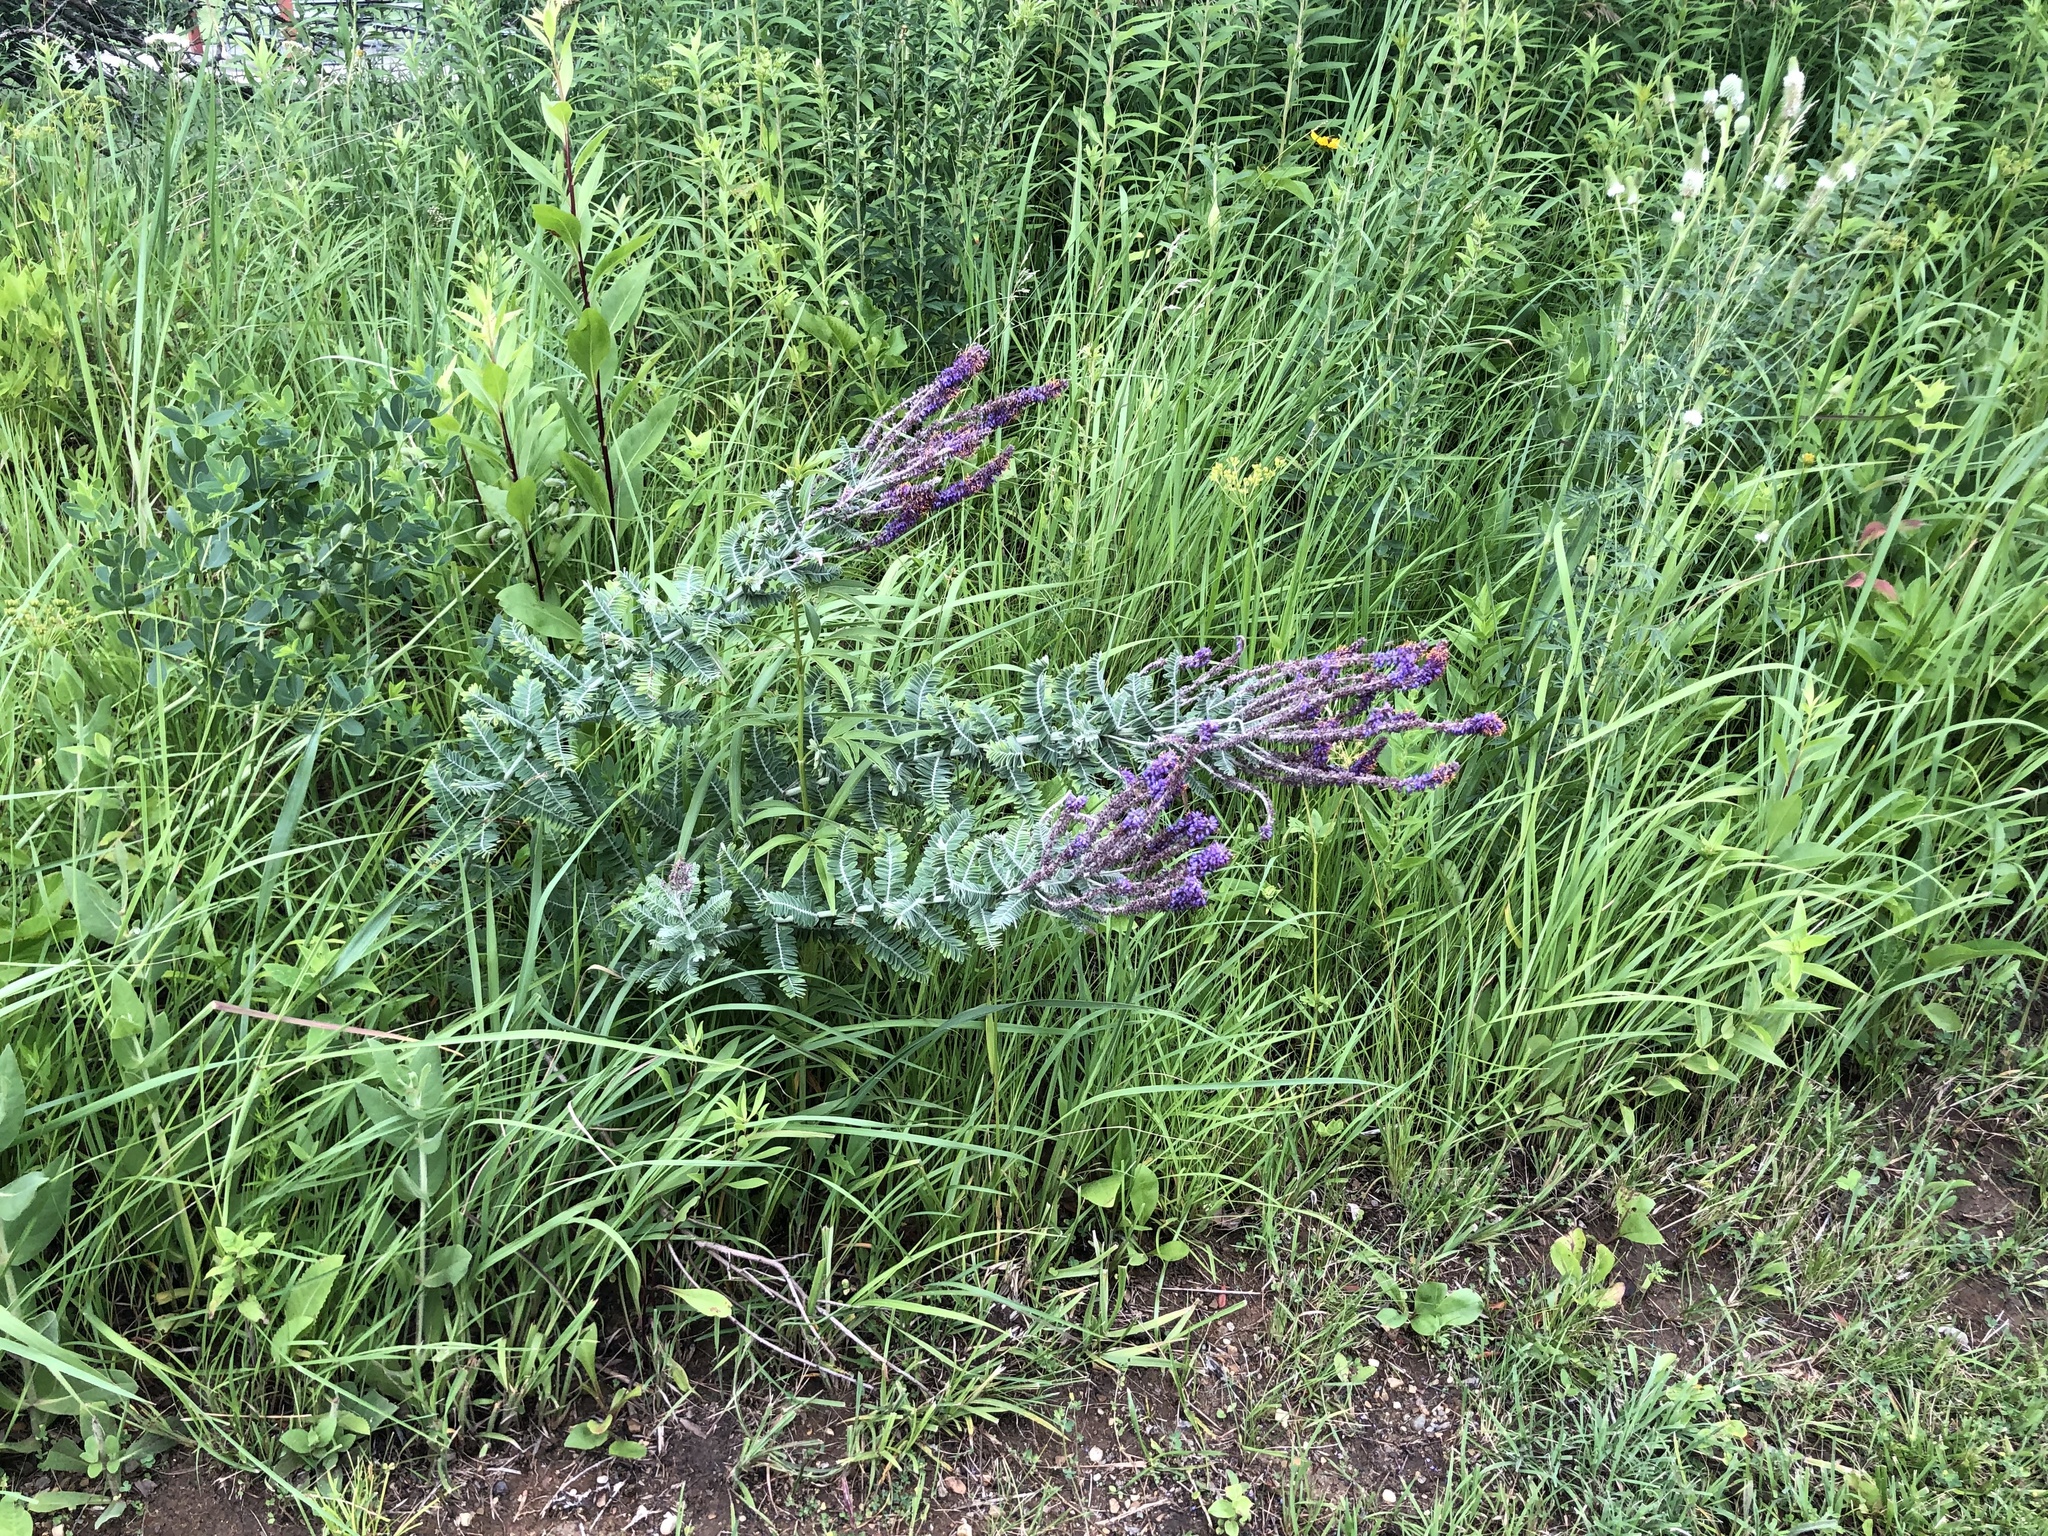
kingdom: Plantae
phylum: Tracheophyta
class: Magnoliopsida
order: Fabales
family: Fabaceae
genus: Amorpha
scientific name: Amorpha canescens
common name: Leadplant
